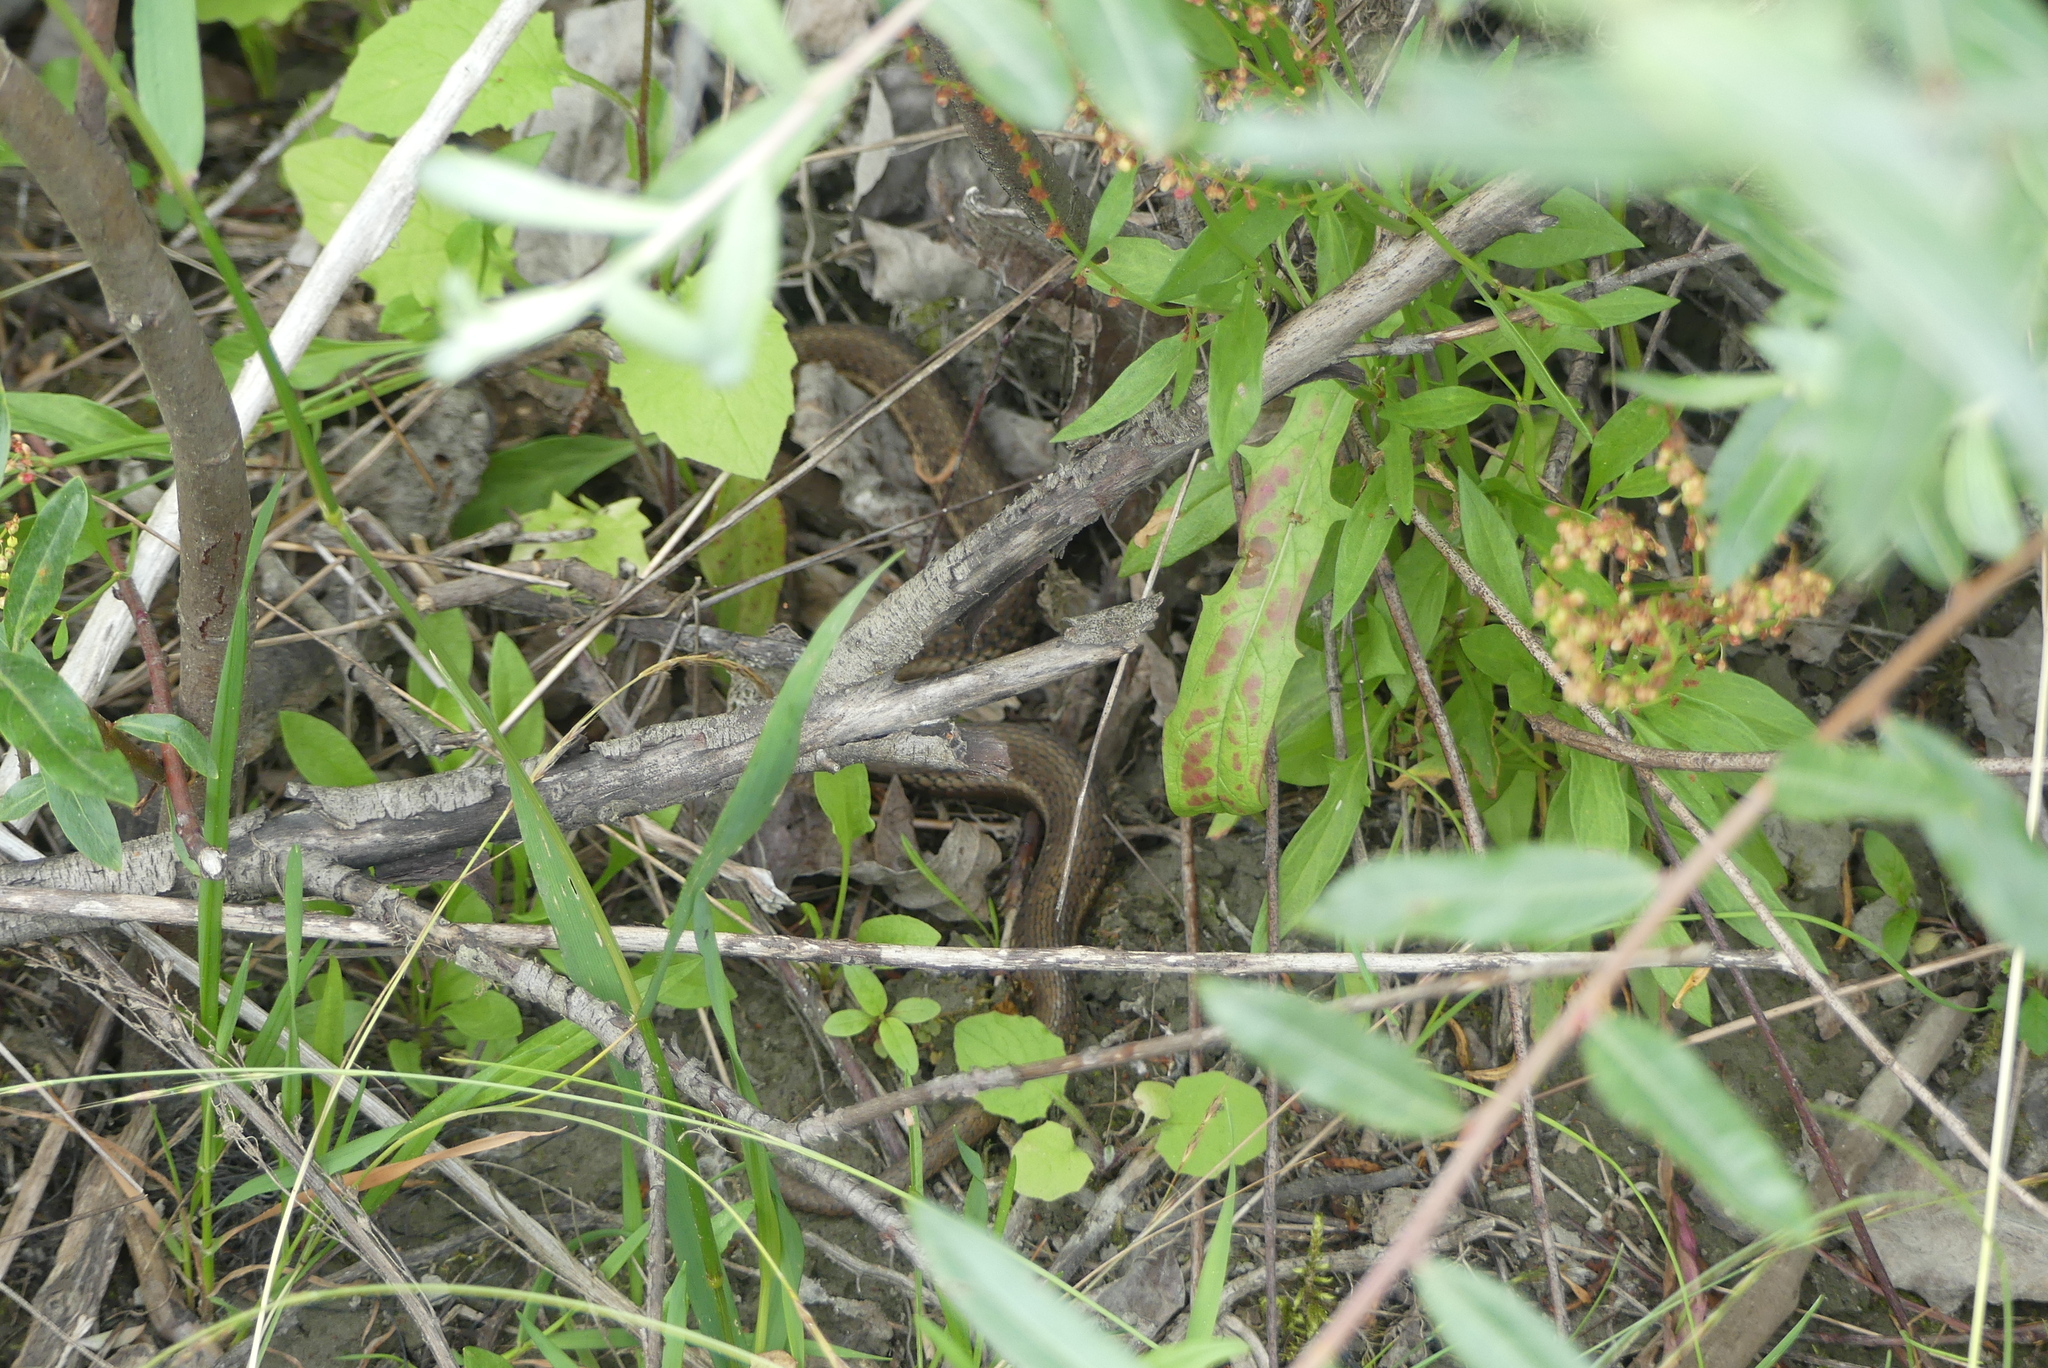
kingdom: Animalia
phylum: Chordata
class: Squamata
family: Colubridae
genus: Thamnophis
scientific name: Thamnophis ordinoides
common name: Northwestern garter snake
